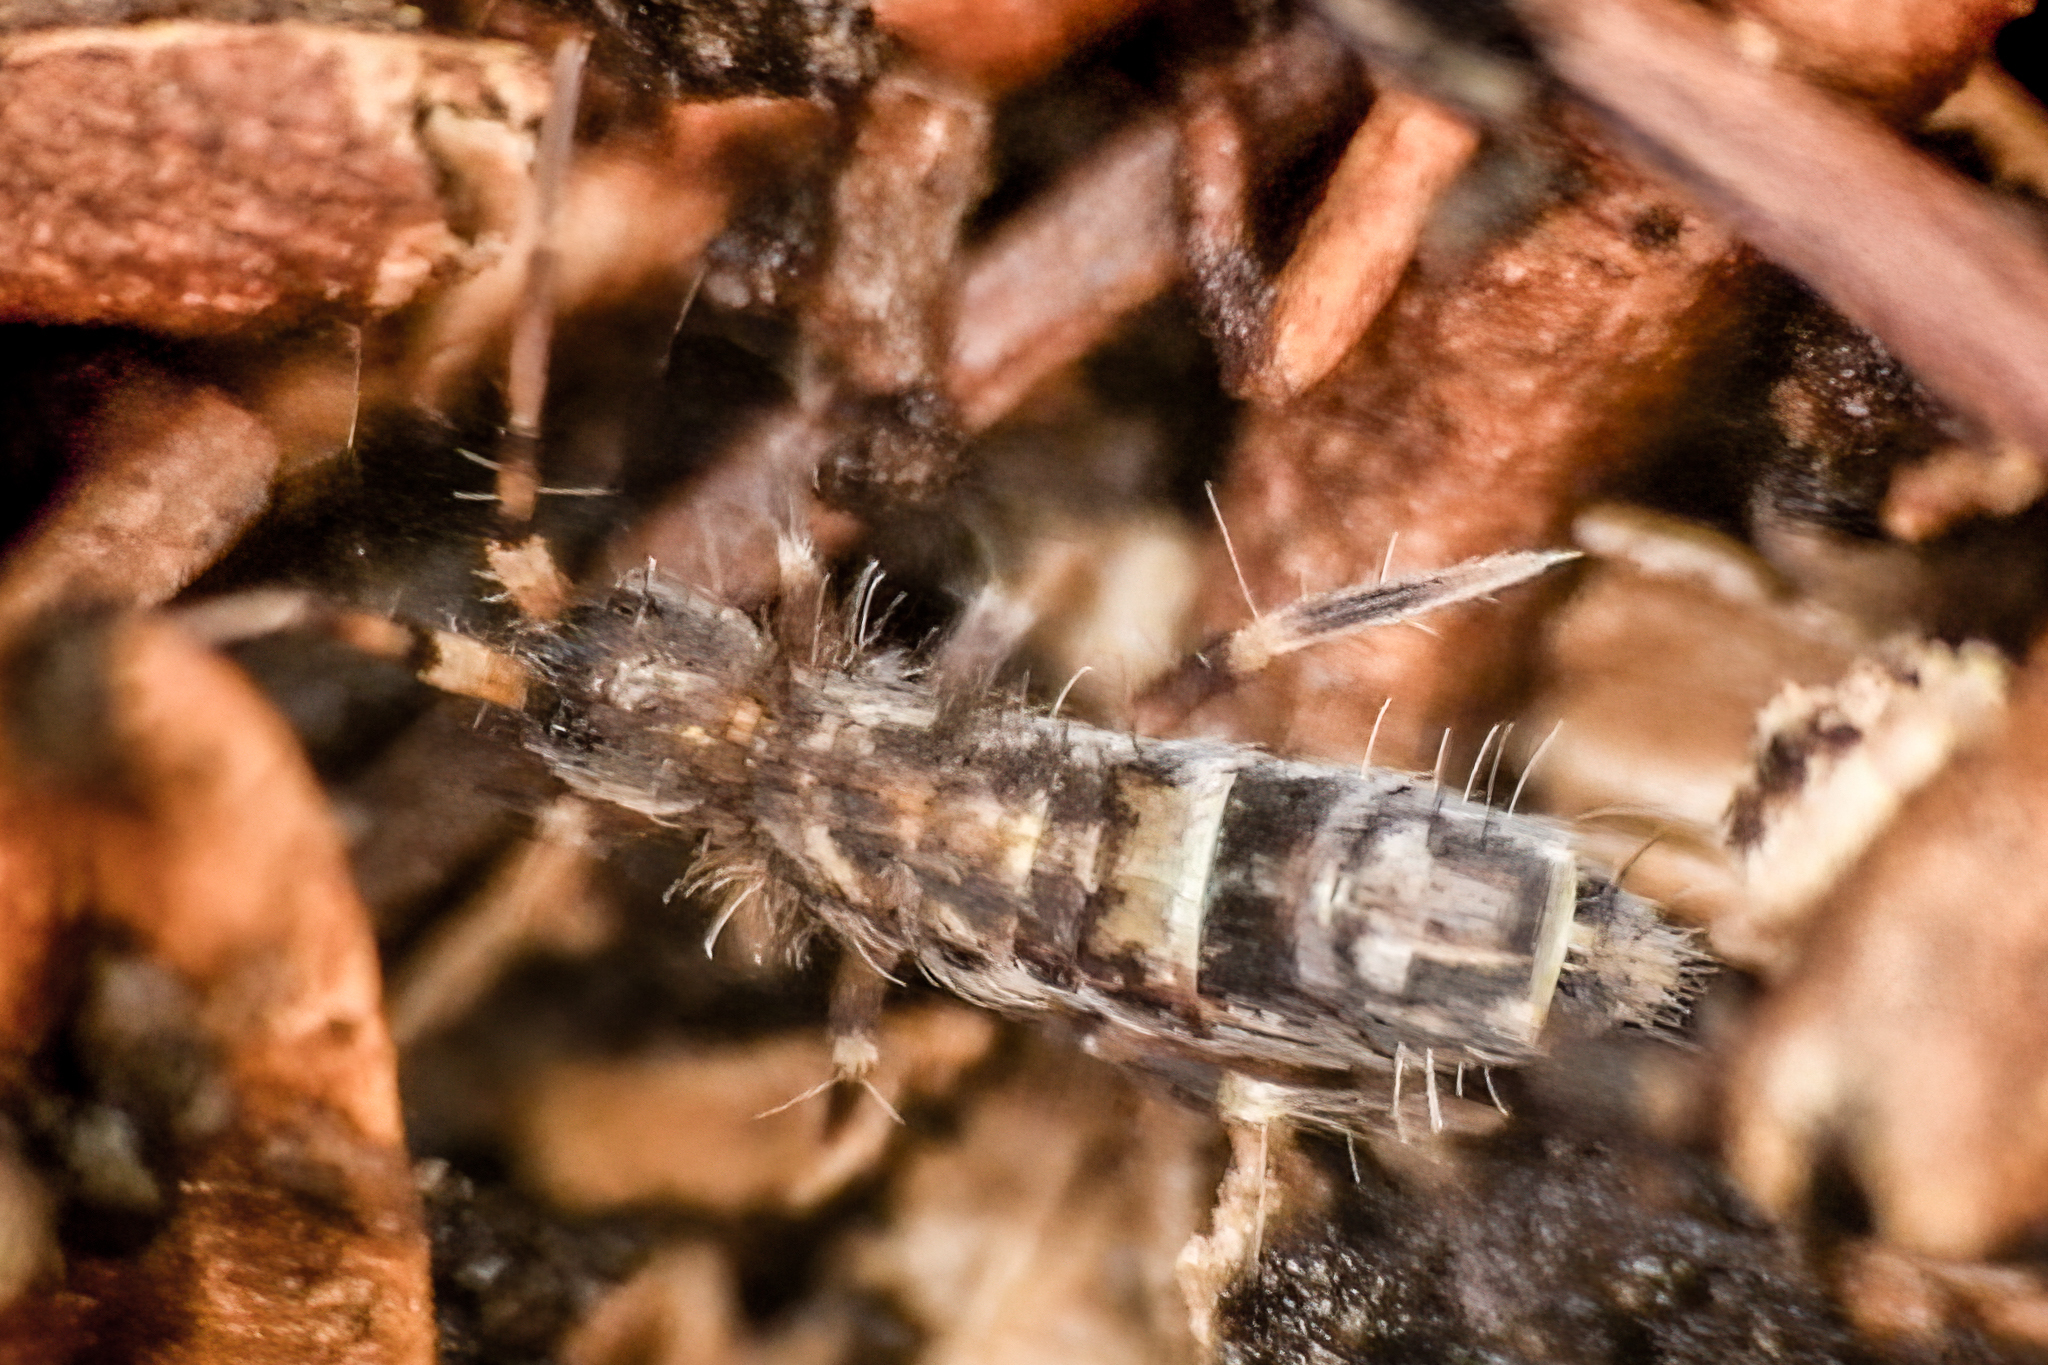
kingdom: Animalia
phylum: Arthropoda
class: Collembola
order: Entomobryomorpha
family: Orchesellidae
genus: Orchesella
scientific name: Orchesella cincta
